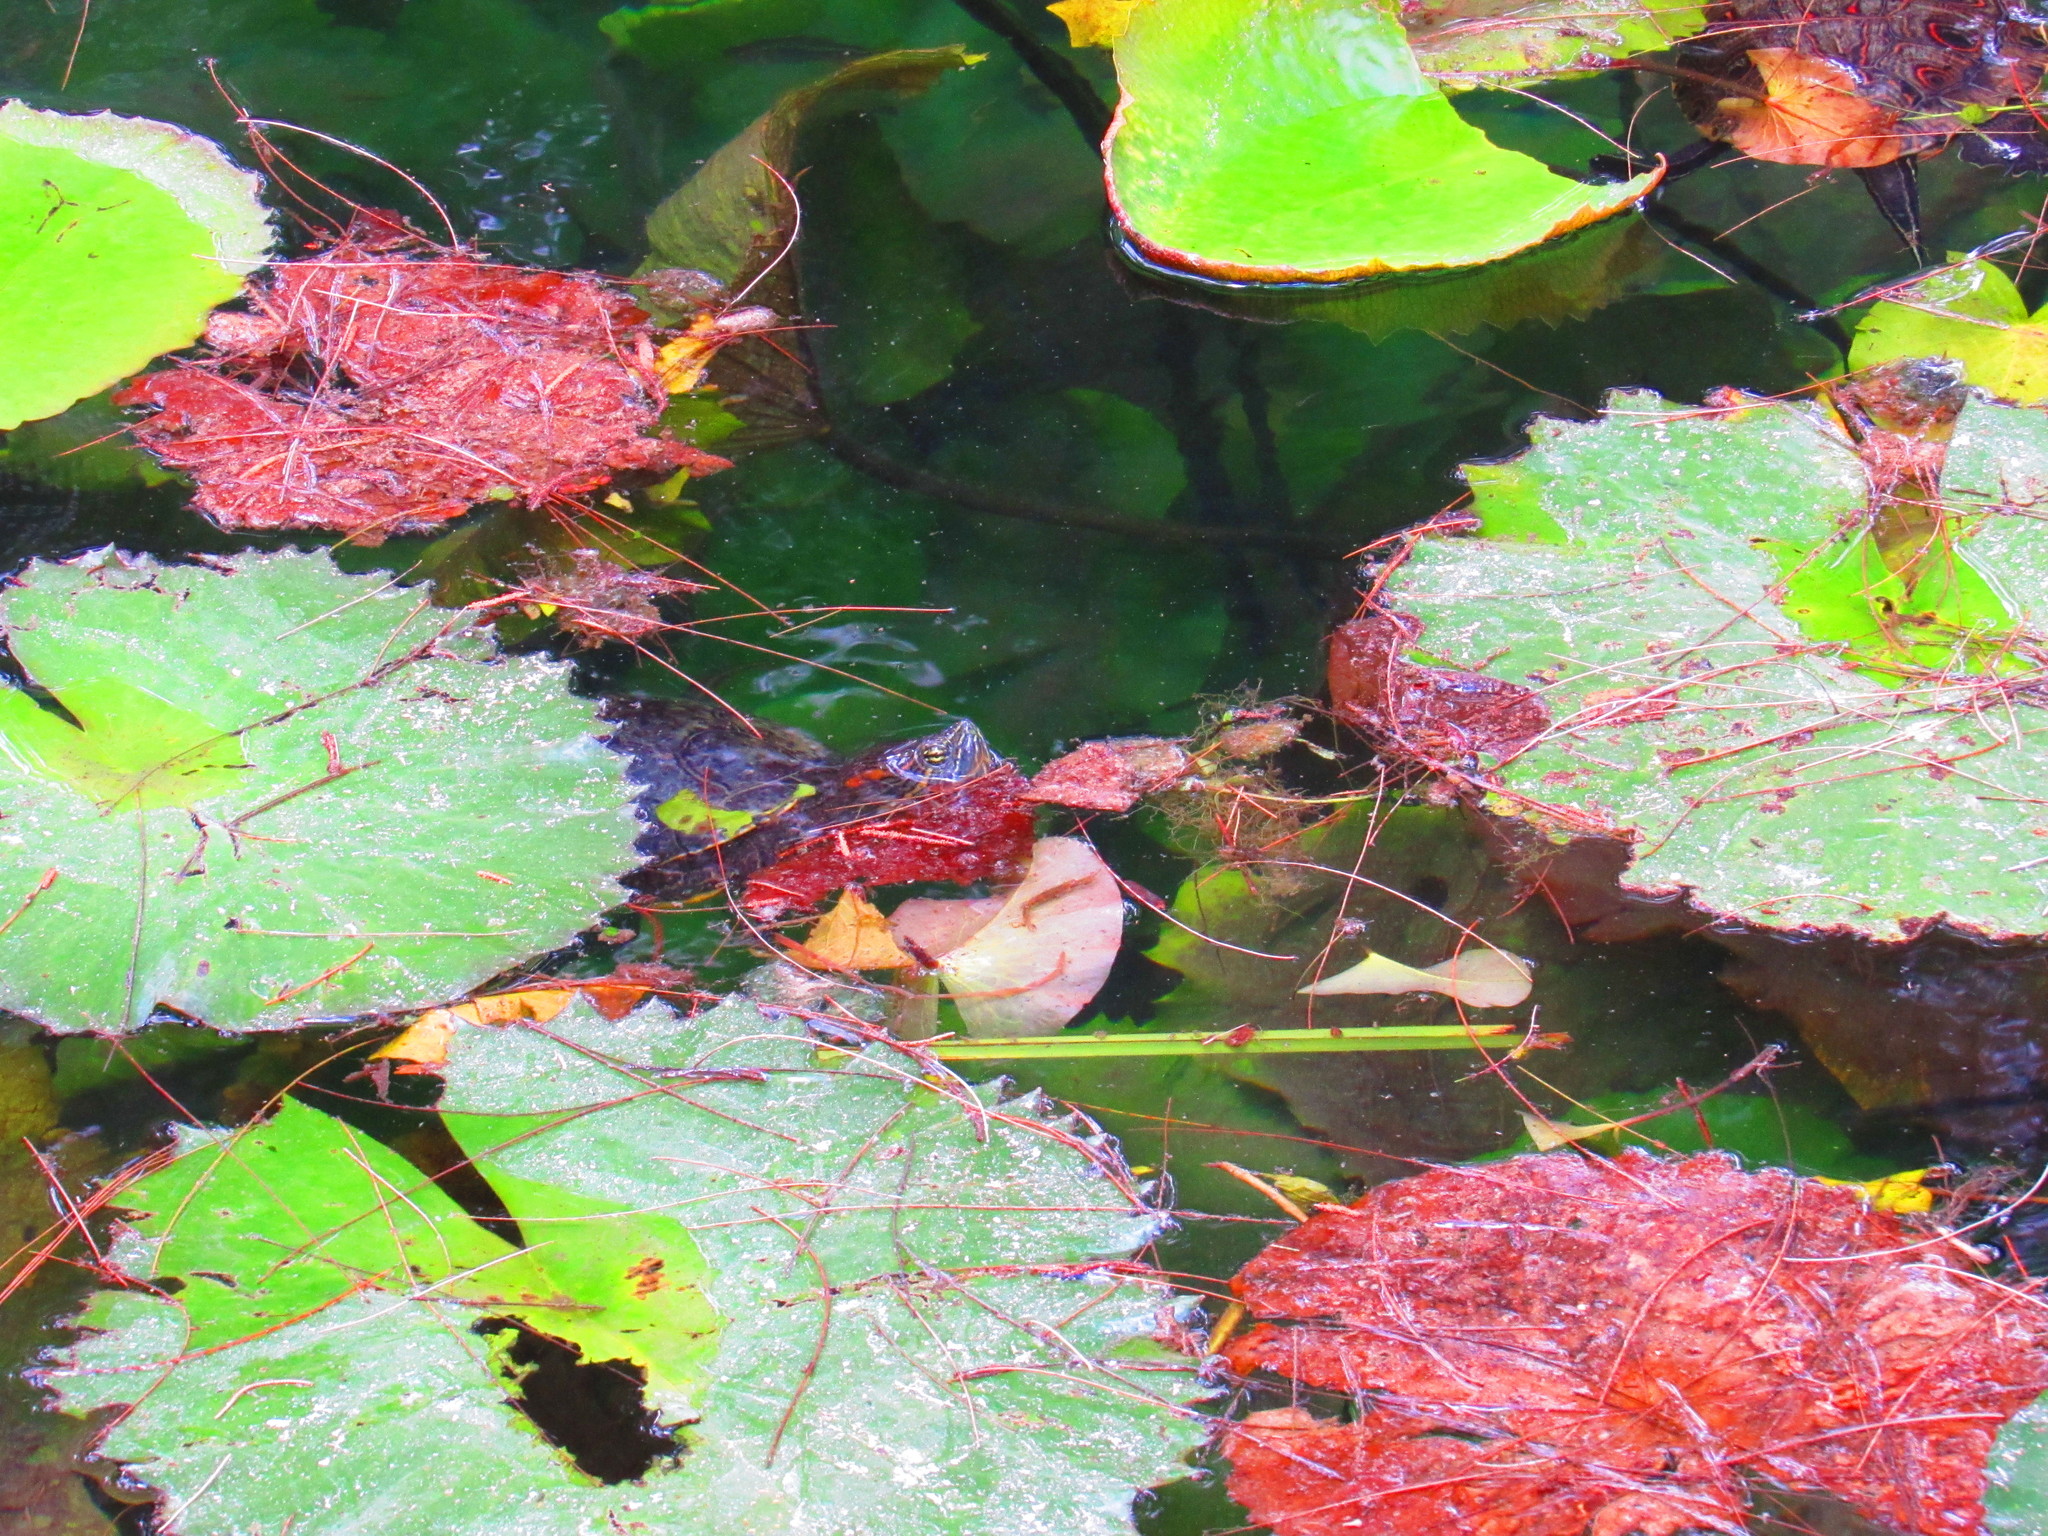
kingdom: Animalia
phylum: Chordata
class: Testudines
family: Emydidae
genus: Trachemys
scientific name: Trachemys scripta
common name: Slider
